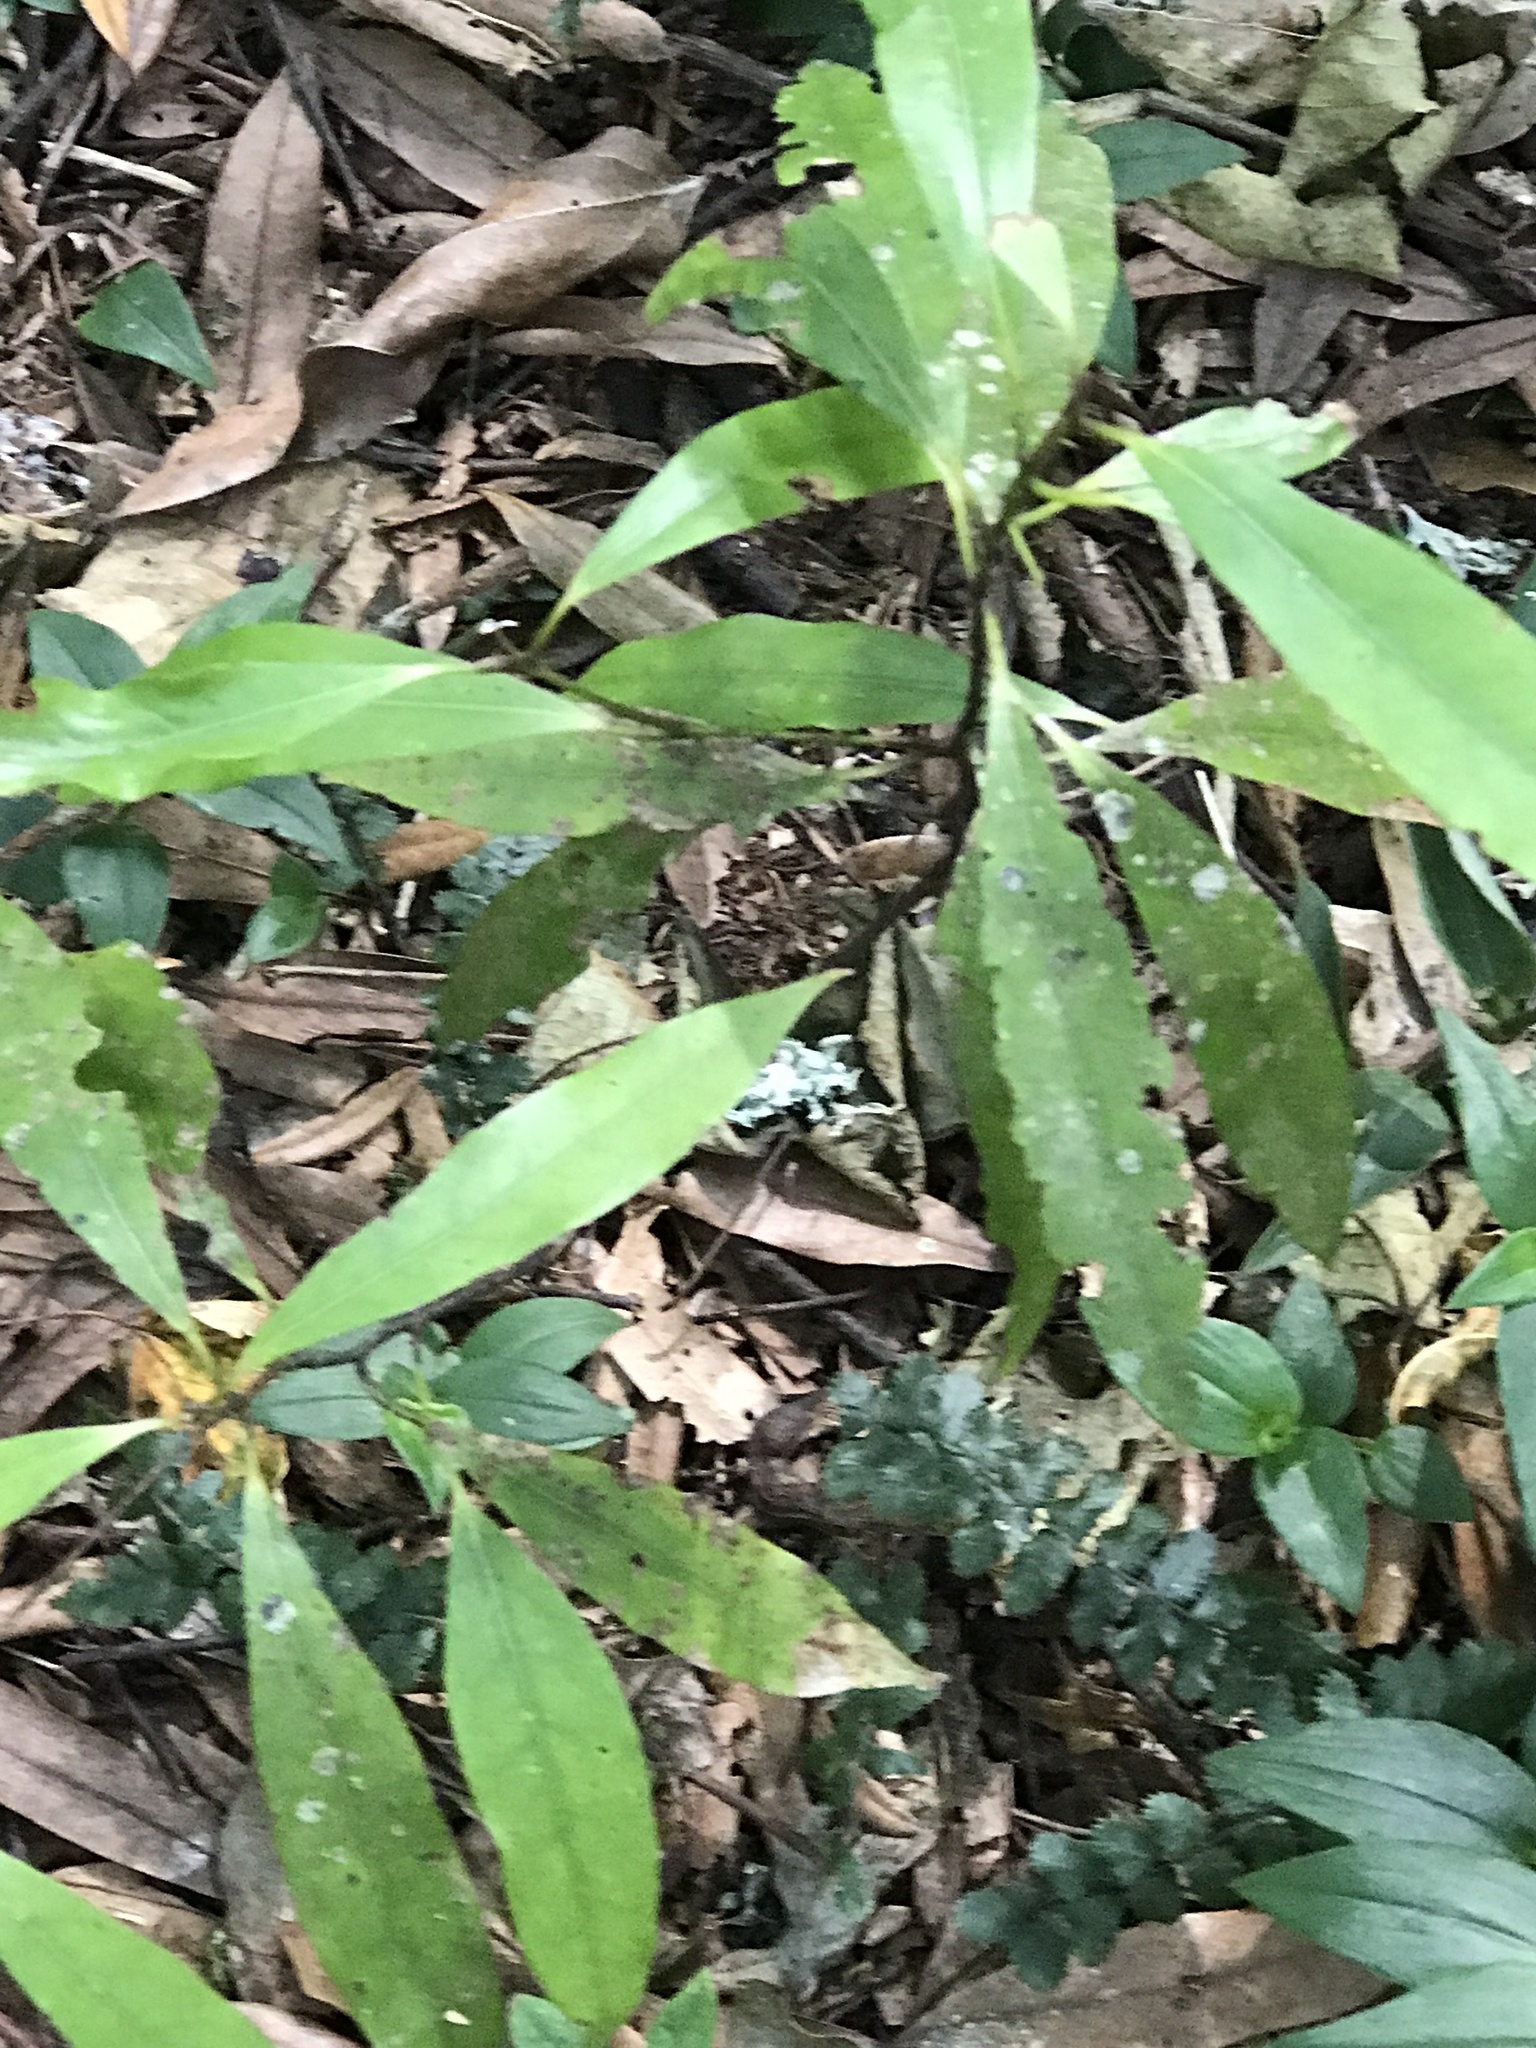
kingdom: Plantae
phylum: Tracheophyta
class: Magnoliopsida
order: Laurales
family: Lauraceae
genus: Beilschmiedia
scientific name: Beilschmiedia tawa
